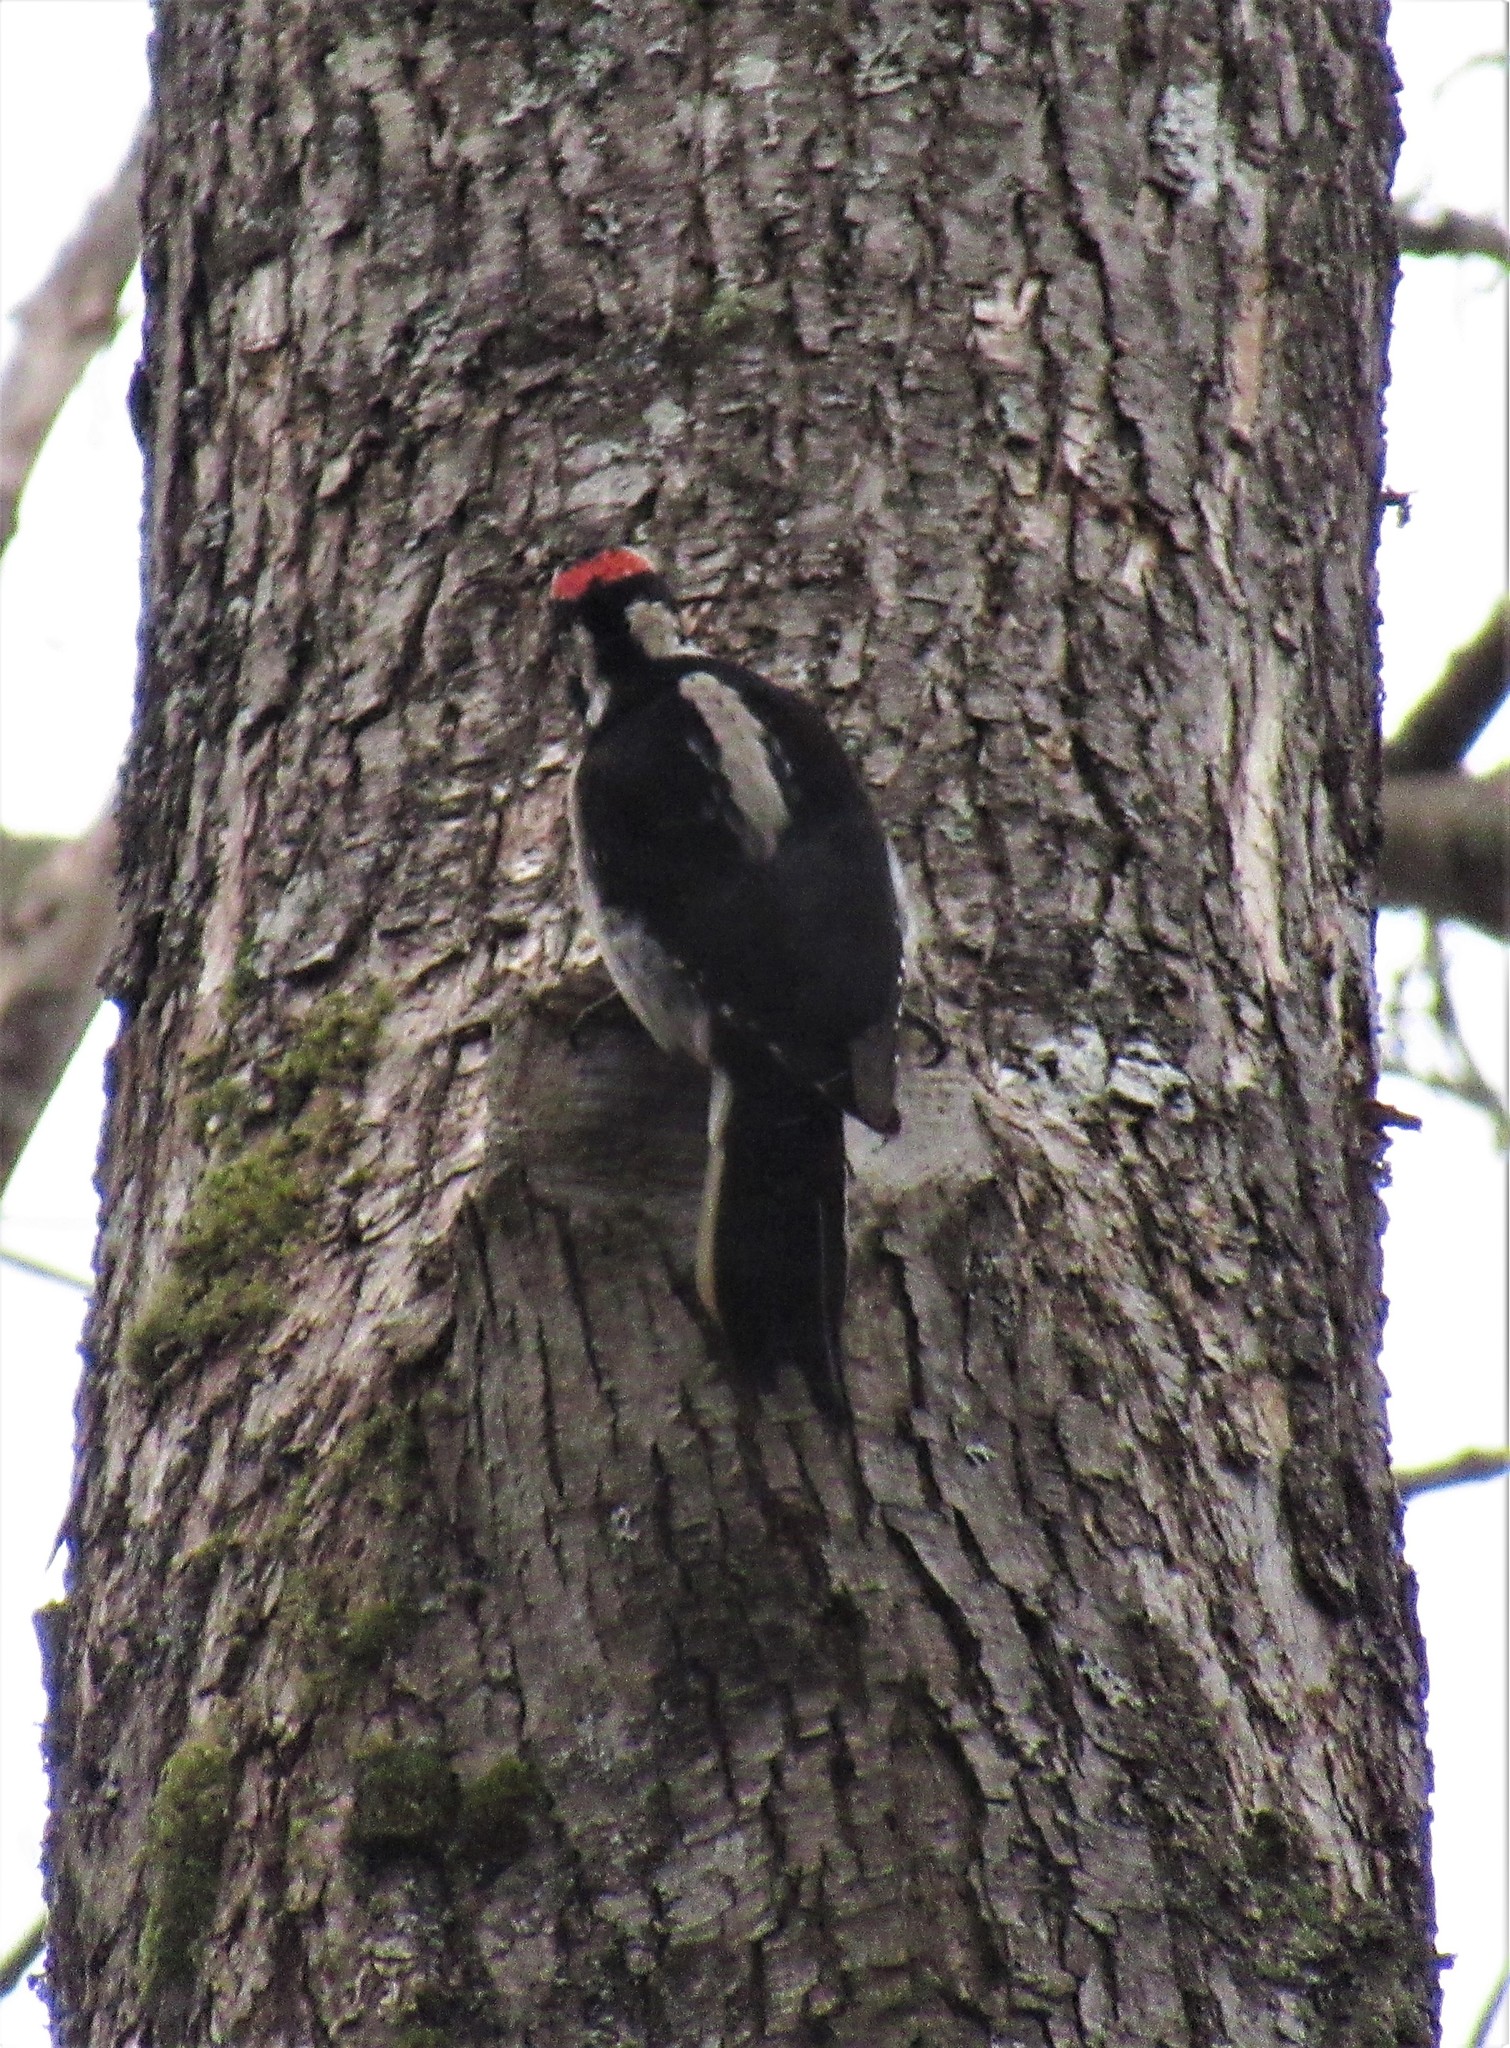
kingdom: Animalia
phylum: Chordata
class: Aves
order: Piciformes
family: Picidae
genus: Leuconotopicus
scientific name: Leuconotopicus villosus
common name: Hairy woodpecker
